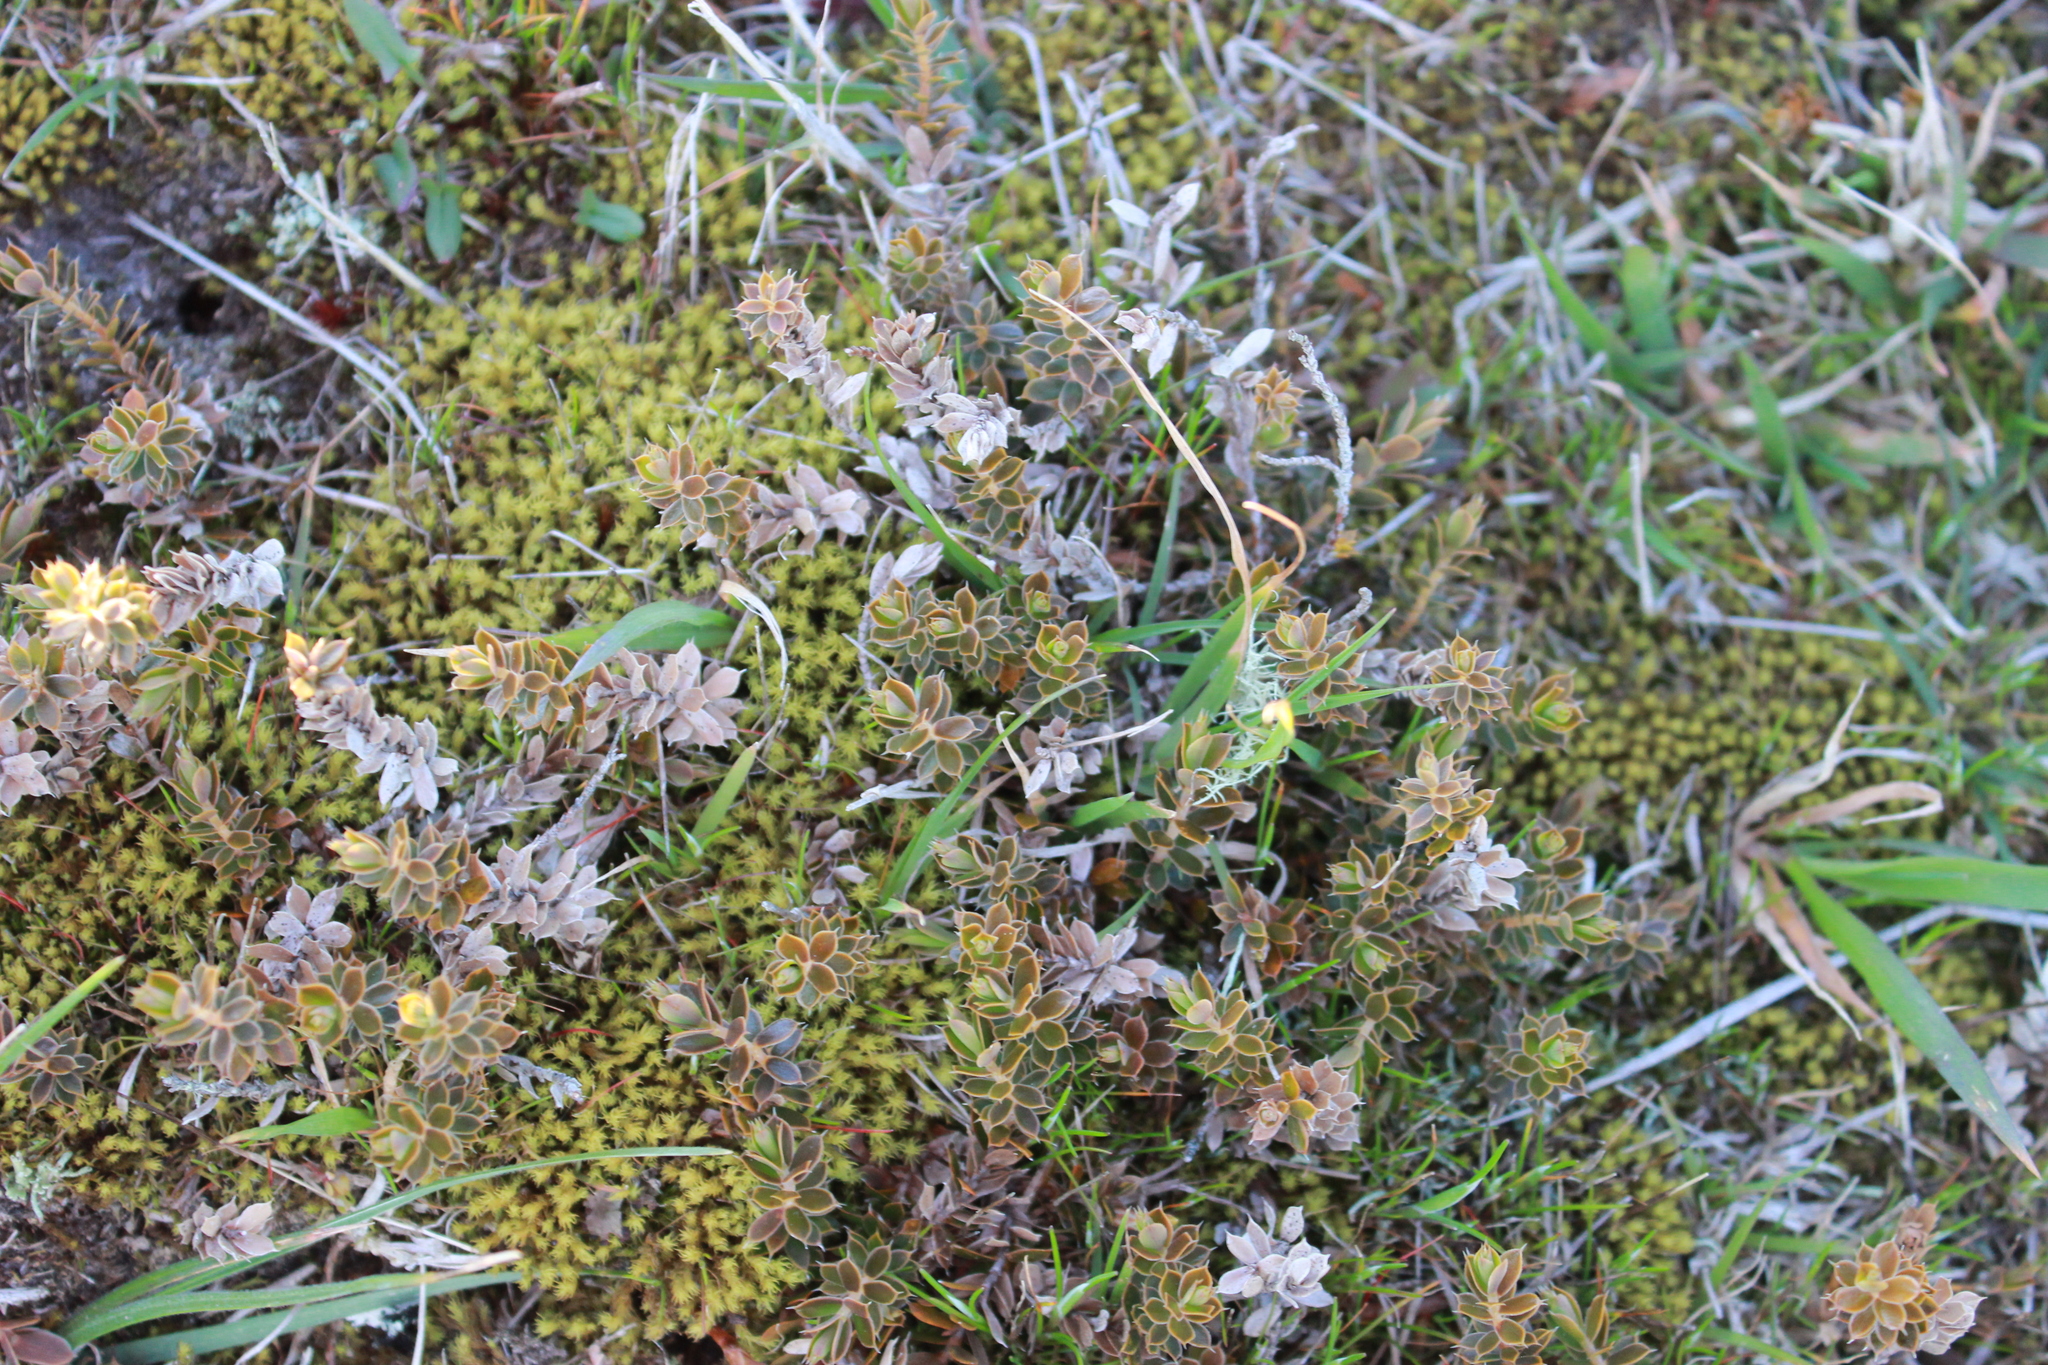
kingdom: Plantae
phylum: Tracheophyta
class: Magnoliopsida
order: Ericales
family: Ericaceae
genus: Styphelia
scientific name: Styphelia nesophila
